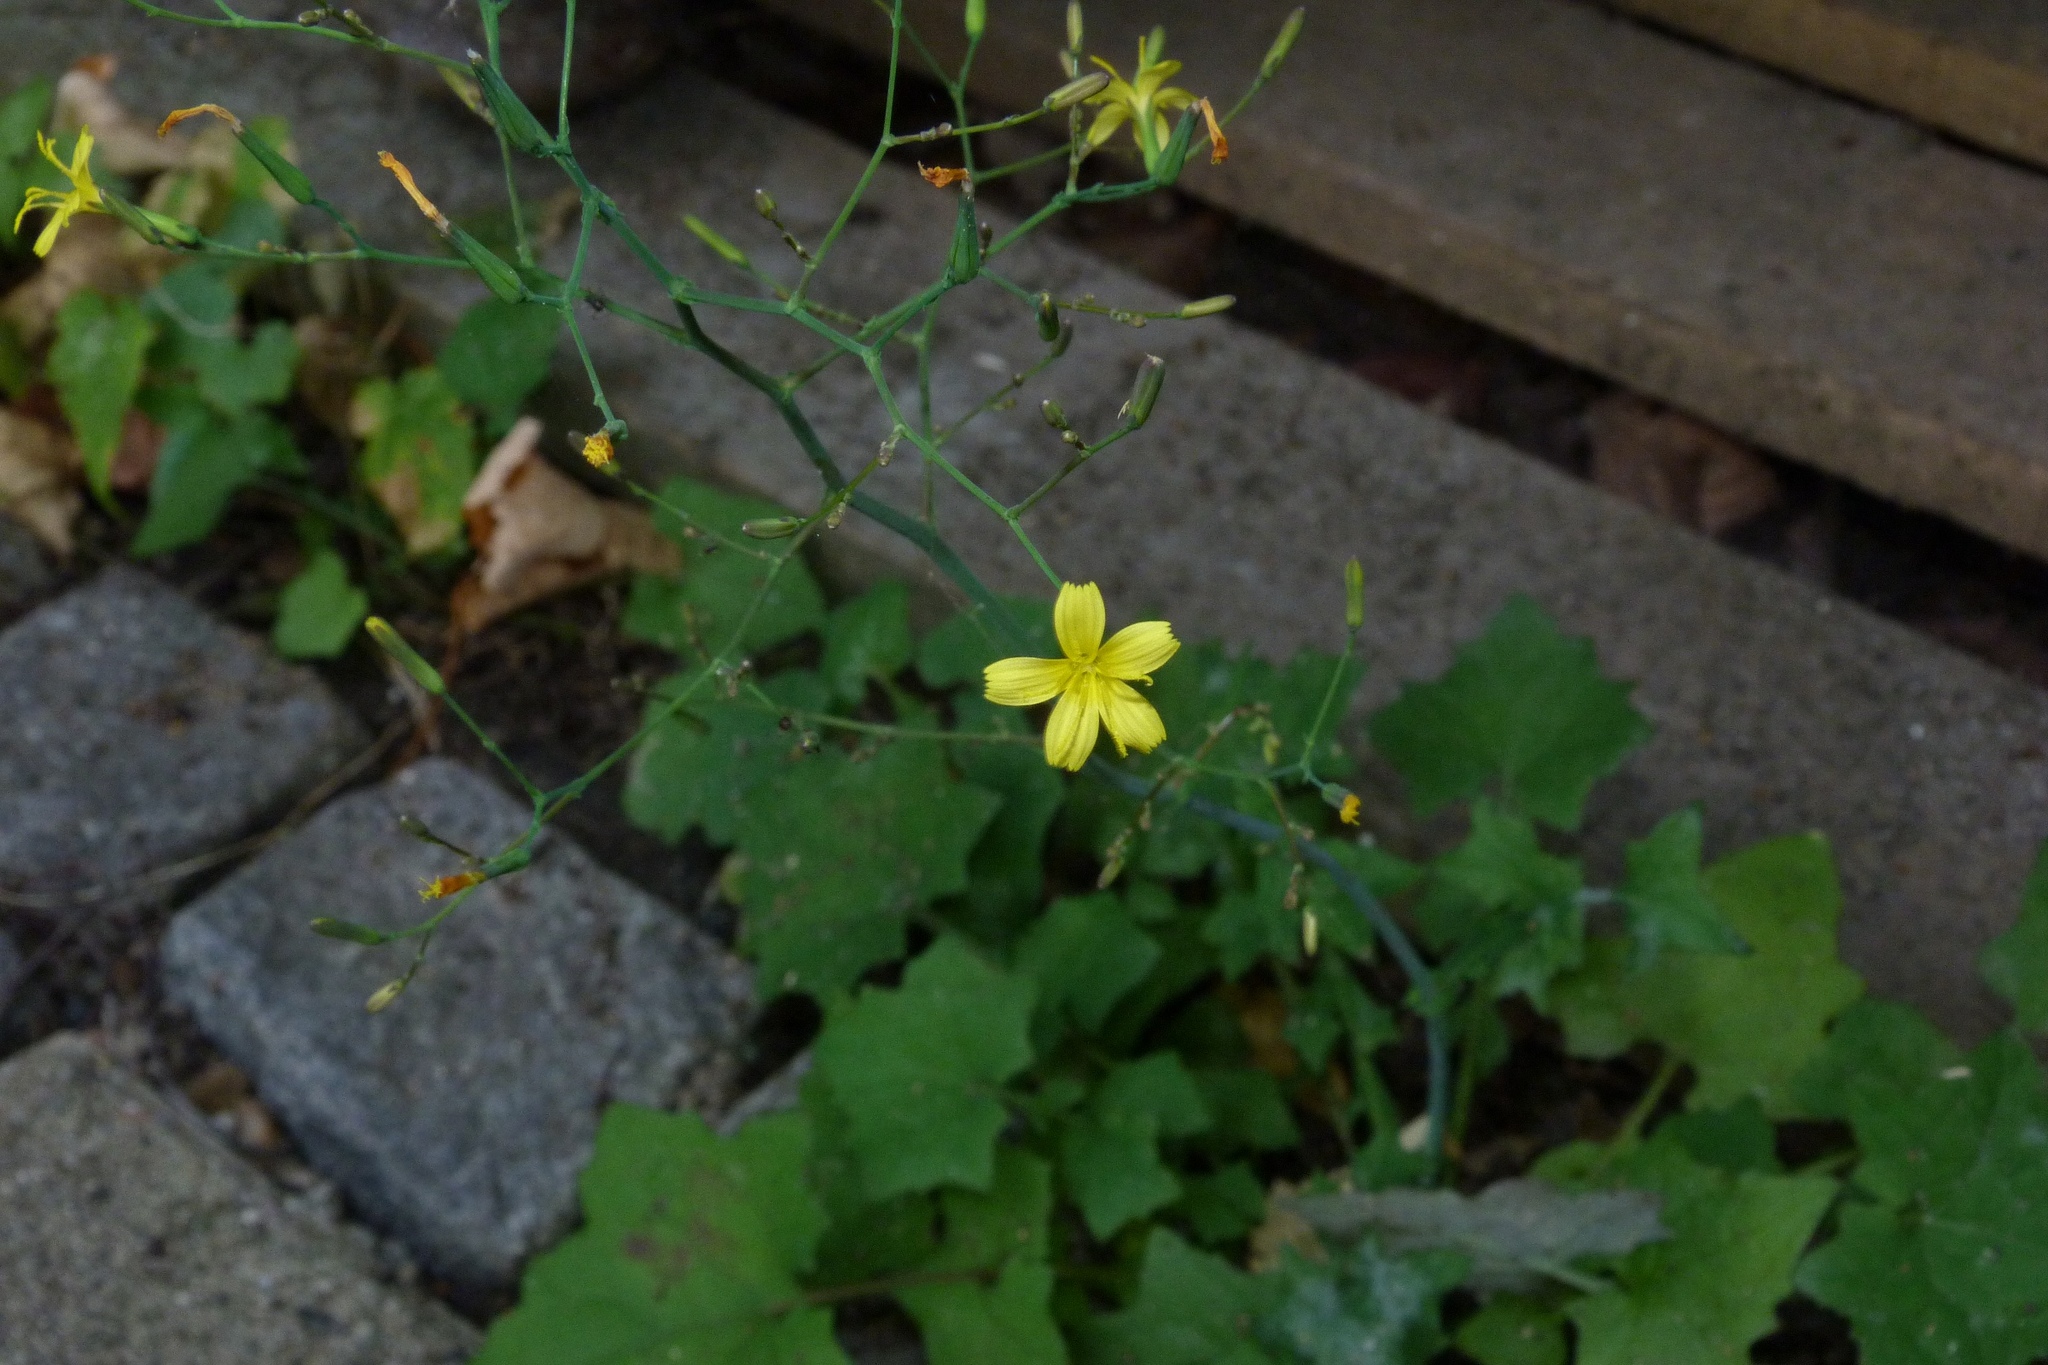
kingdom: Plantae
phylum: Tracheophyta
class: Magnoliopsida
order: Asterales
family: Asteraceae
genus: Mycelis
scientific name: Mycelis muralis
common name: Wall lettuce
